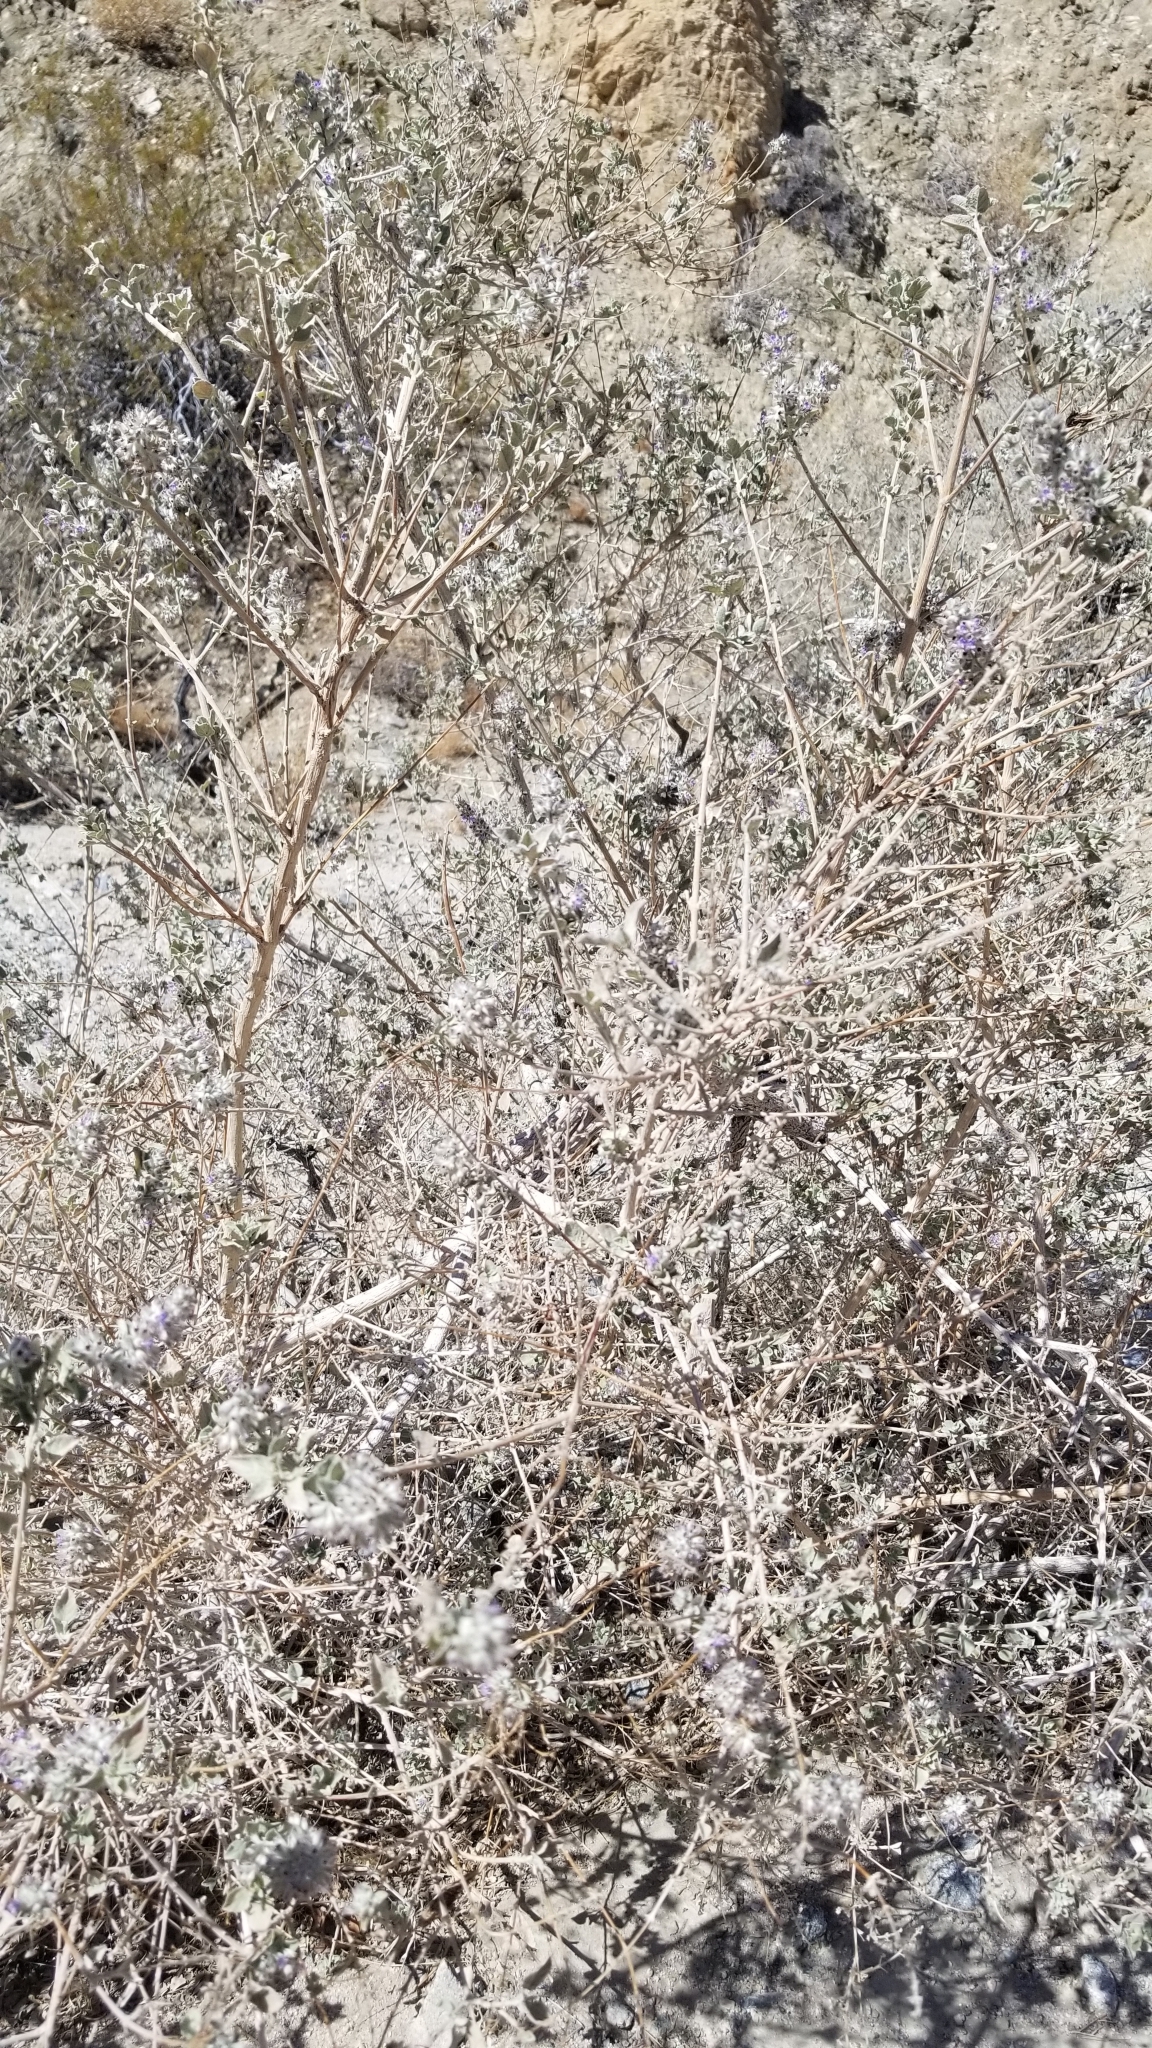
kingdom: Plantae
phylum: Tracheophyta
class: Magnoliopsida
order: Lamiales
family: Lamiaceae
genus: Condea
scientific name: Condea emoryi
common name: Chia
